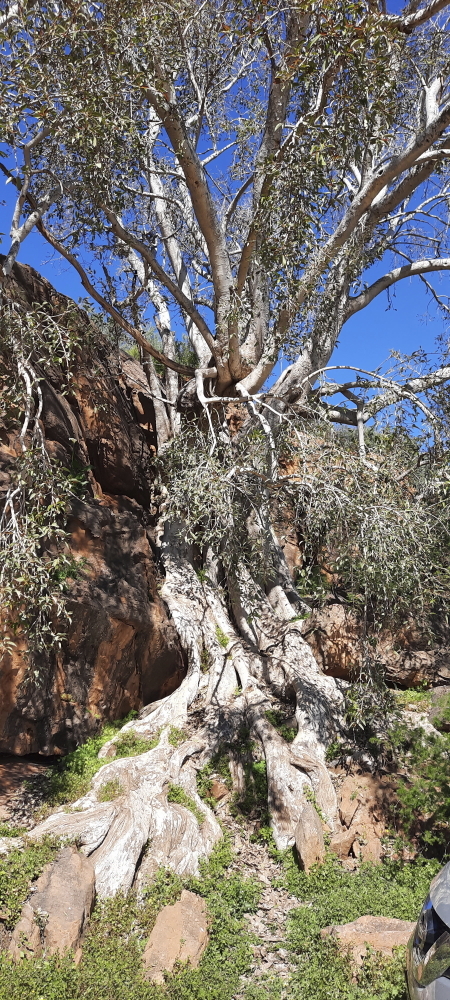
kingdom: Plantae
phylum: Tracheophyta
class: Magnoliopsida
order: Rosales
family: Moraceae
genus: Ficus
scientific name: Ficus cordata
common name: Namaqua rock fig
